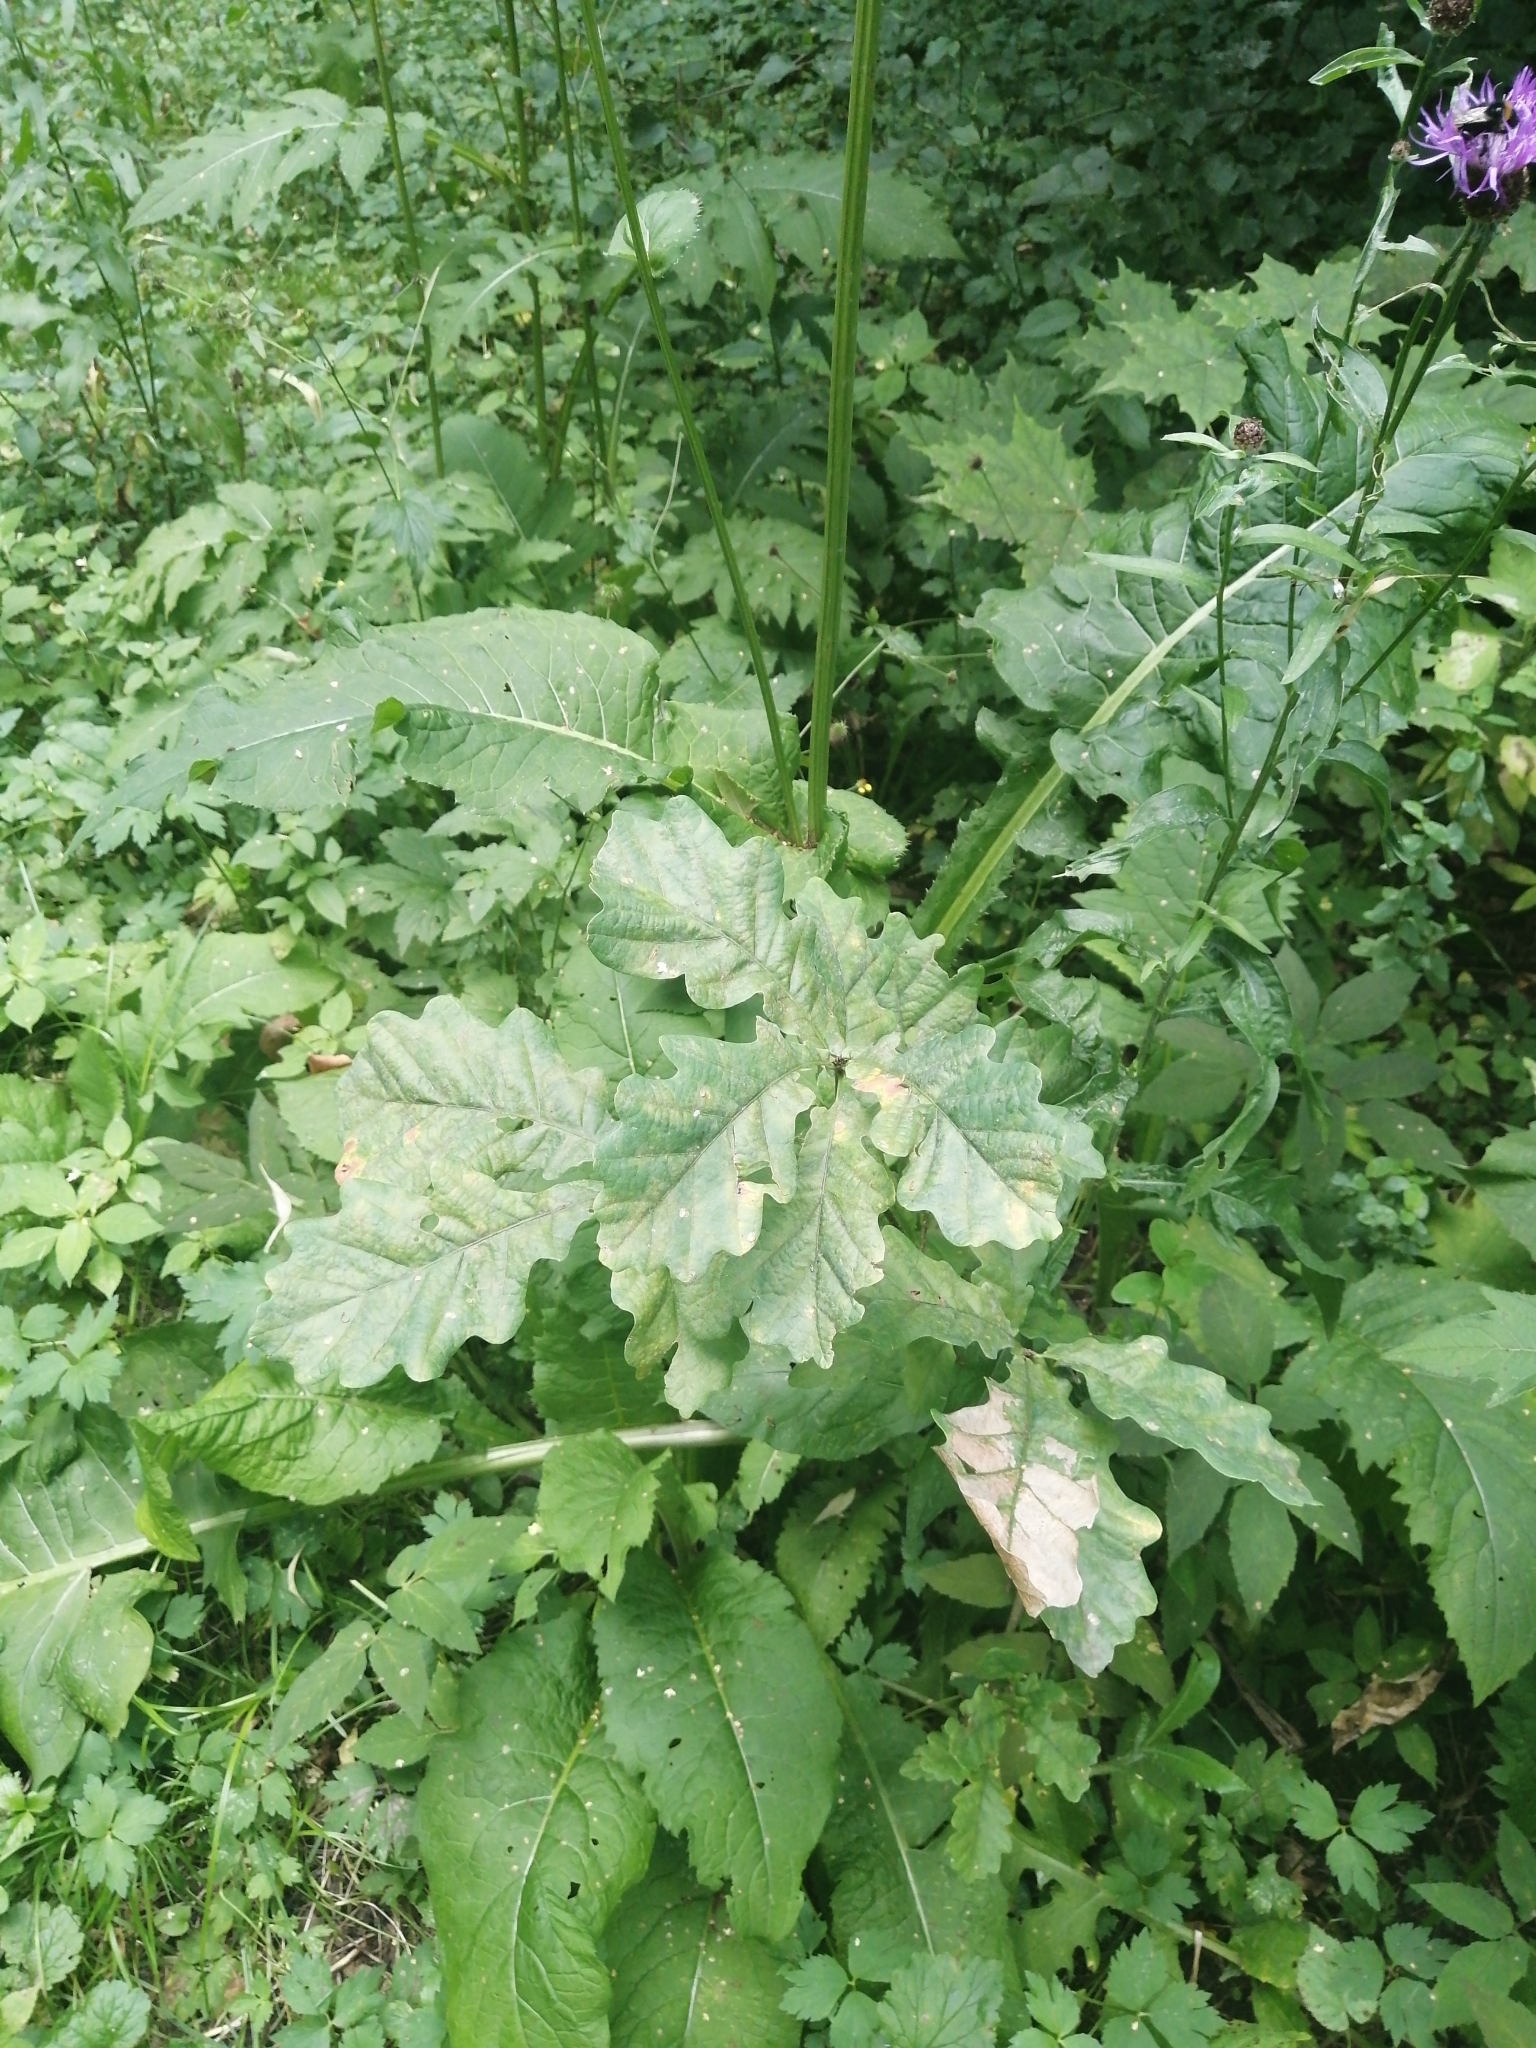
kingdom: Plantae
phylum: Tracheophyta
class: Magnoliopsida
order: Fagales
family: Fagaceae
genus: Quercus
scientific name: Quercus robur
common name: Pedunculate oak
